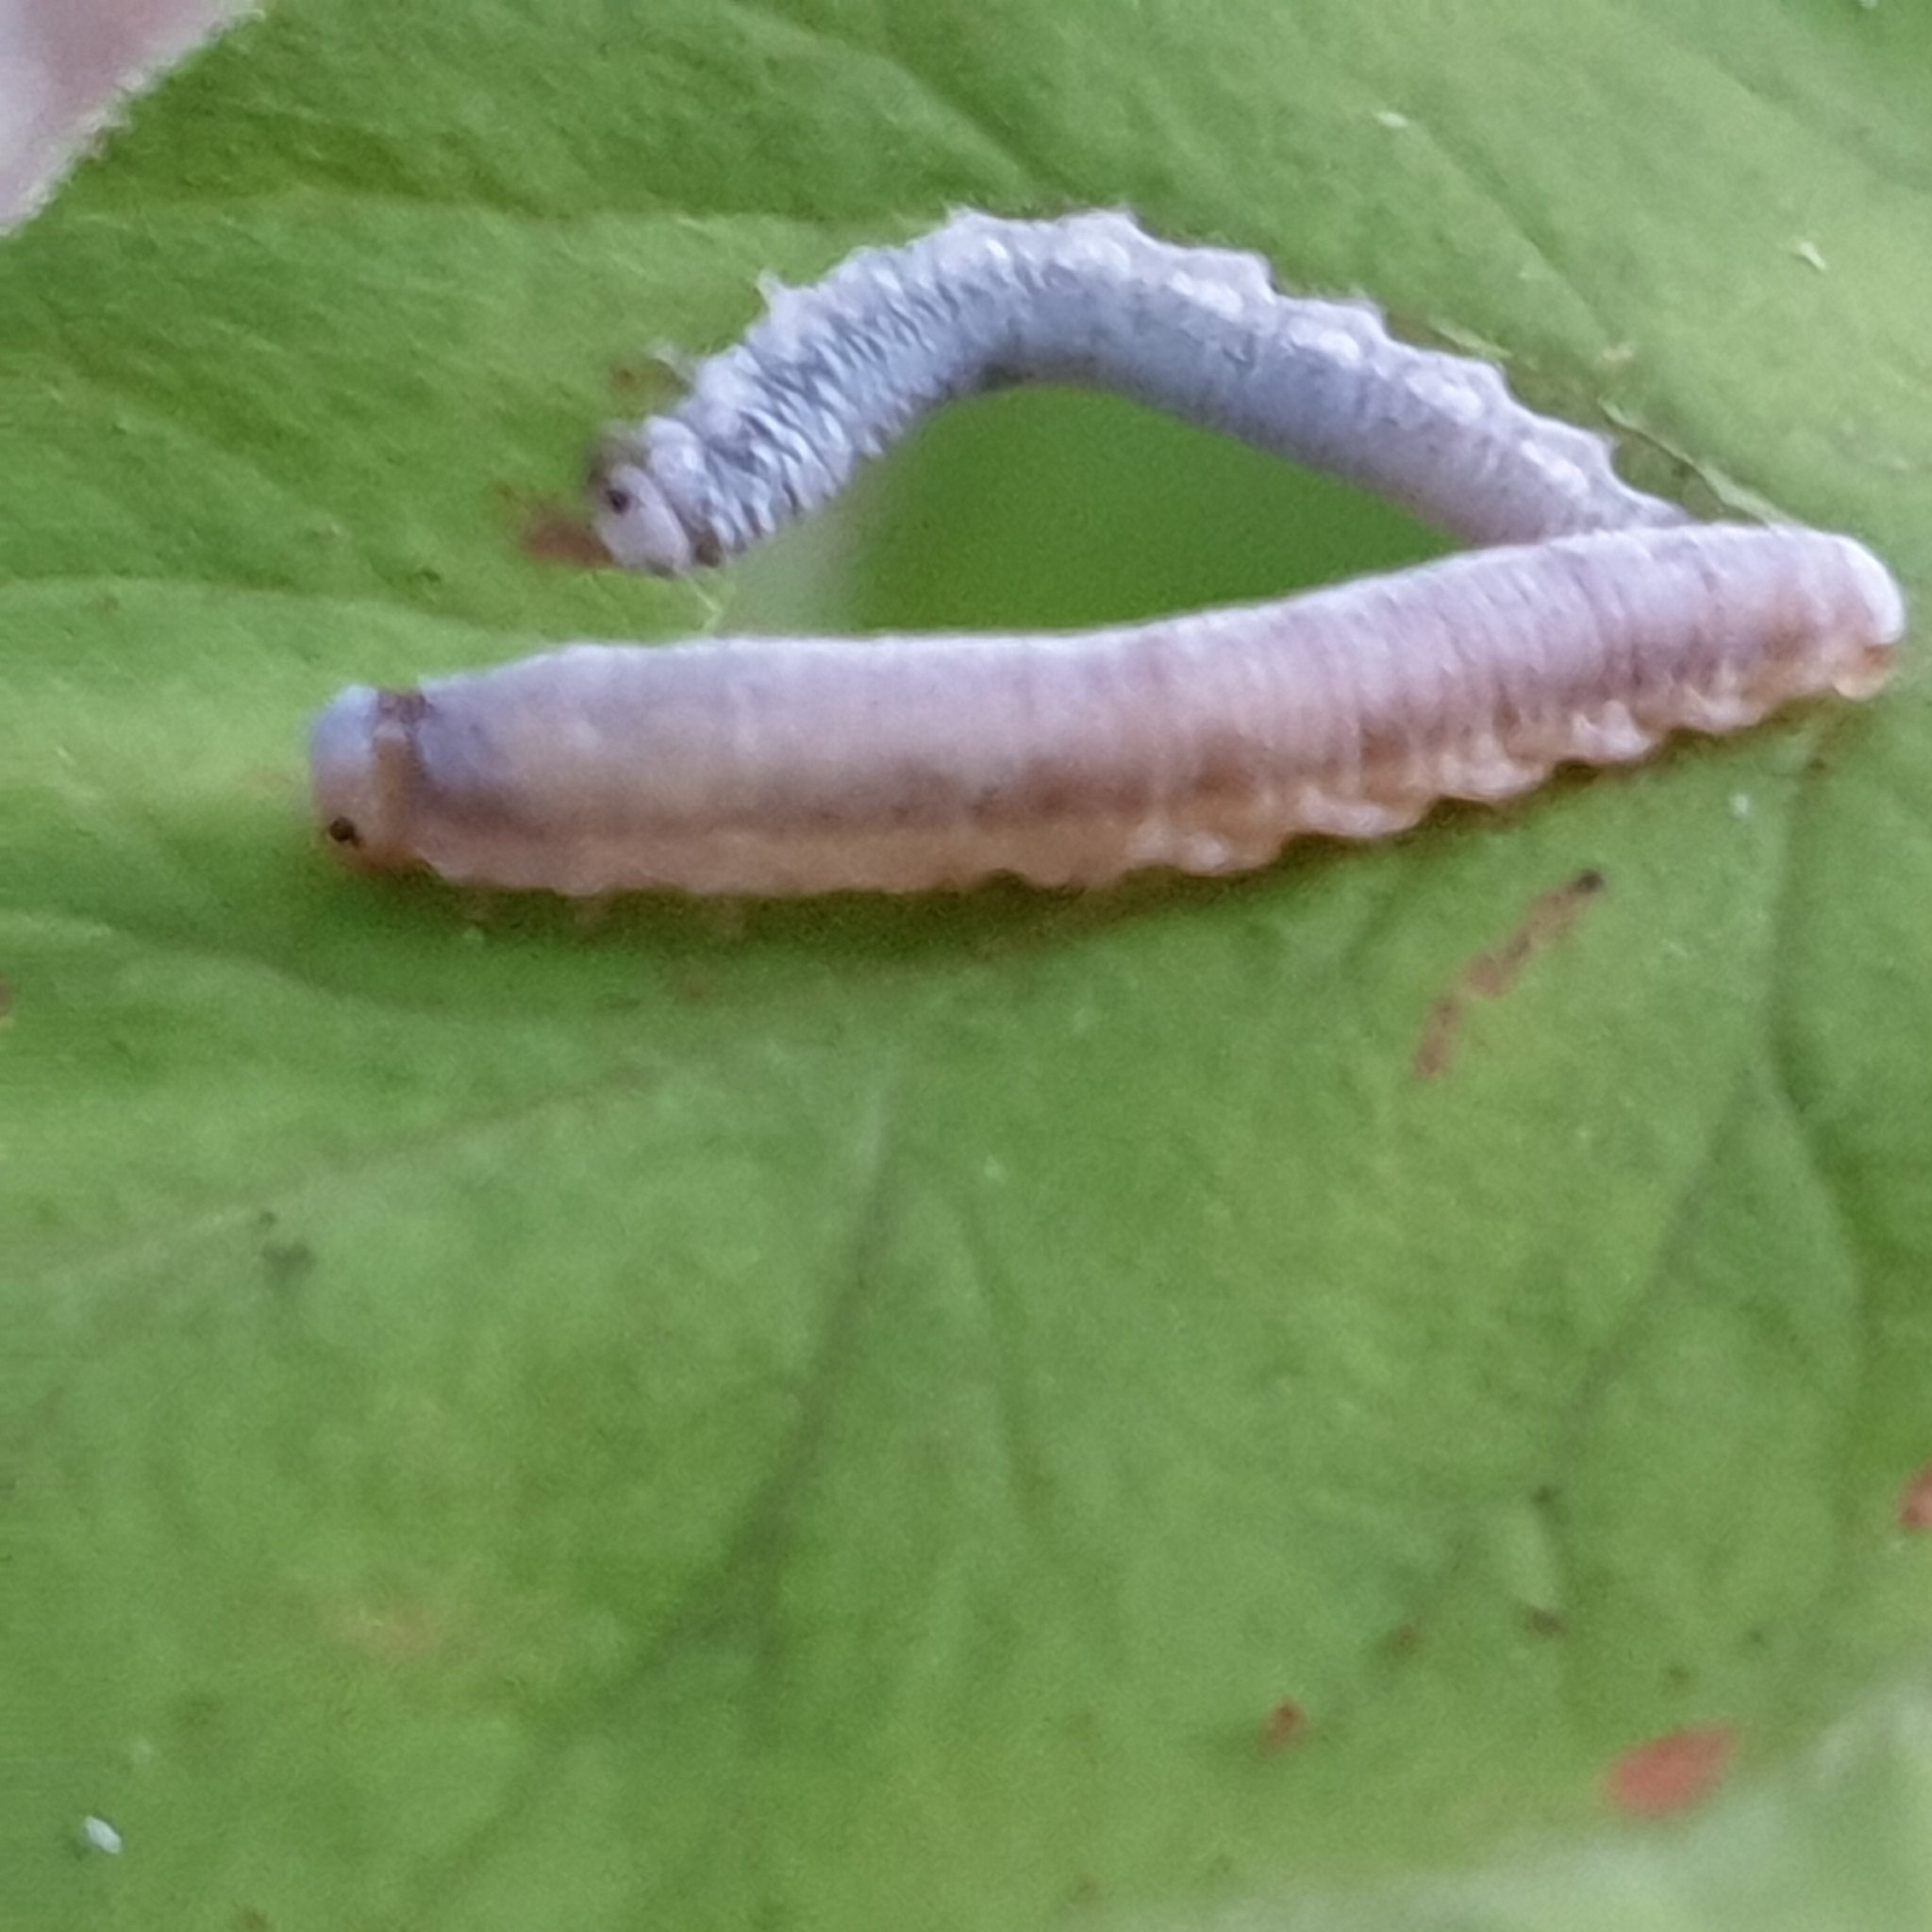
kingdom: Animalia
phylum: Arthropoda
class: Insecta
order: Hymenoptera
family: Tenthredinidae
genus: Monostegia
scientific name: Monostegia abdominalis
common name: Tenthredid wasp
